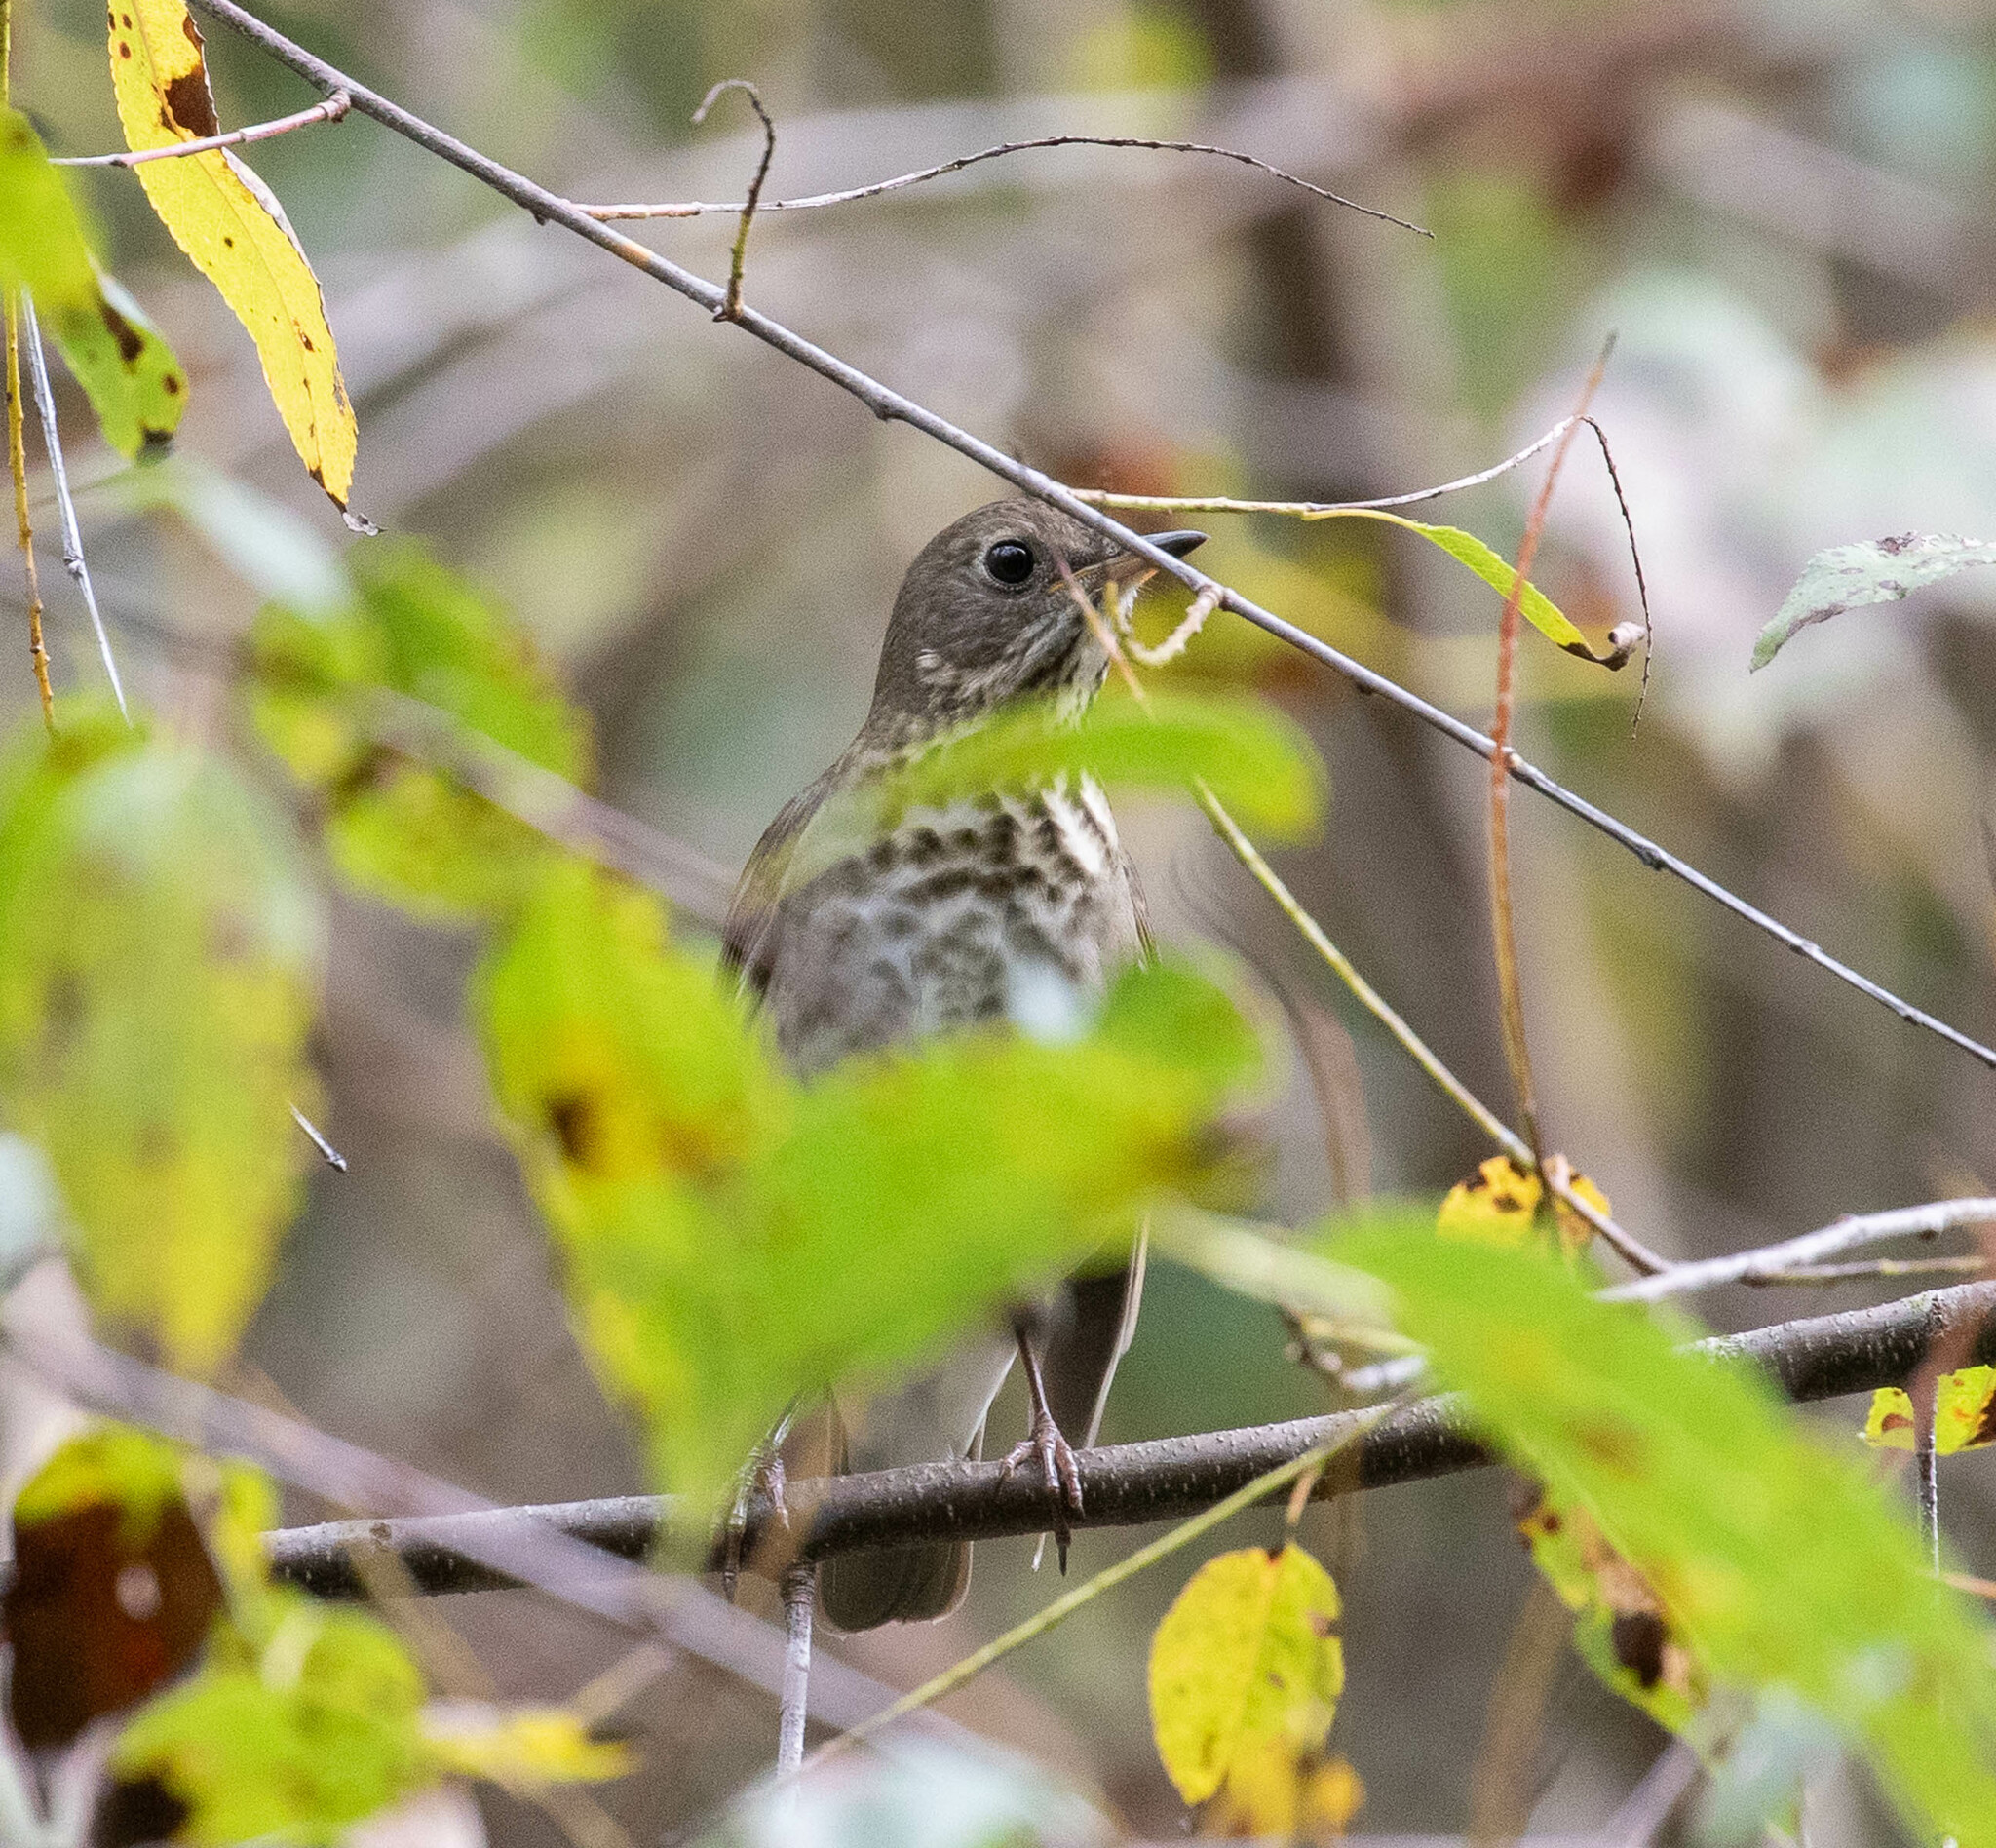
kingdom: Animalia
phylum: Chordata
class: Aves
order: Passeriformes
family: Turdidae
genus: Catharus
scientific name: Catharus minimus
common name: Grey-cheeked thrush
